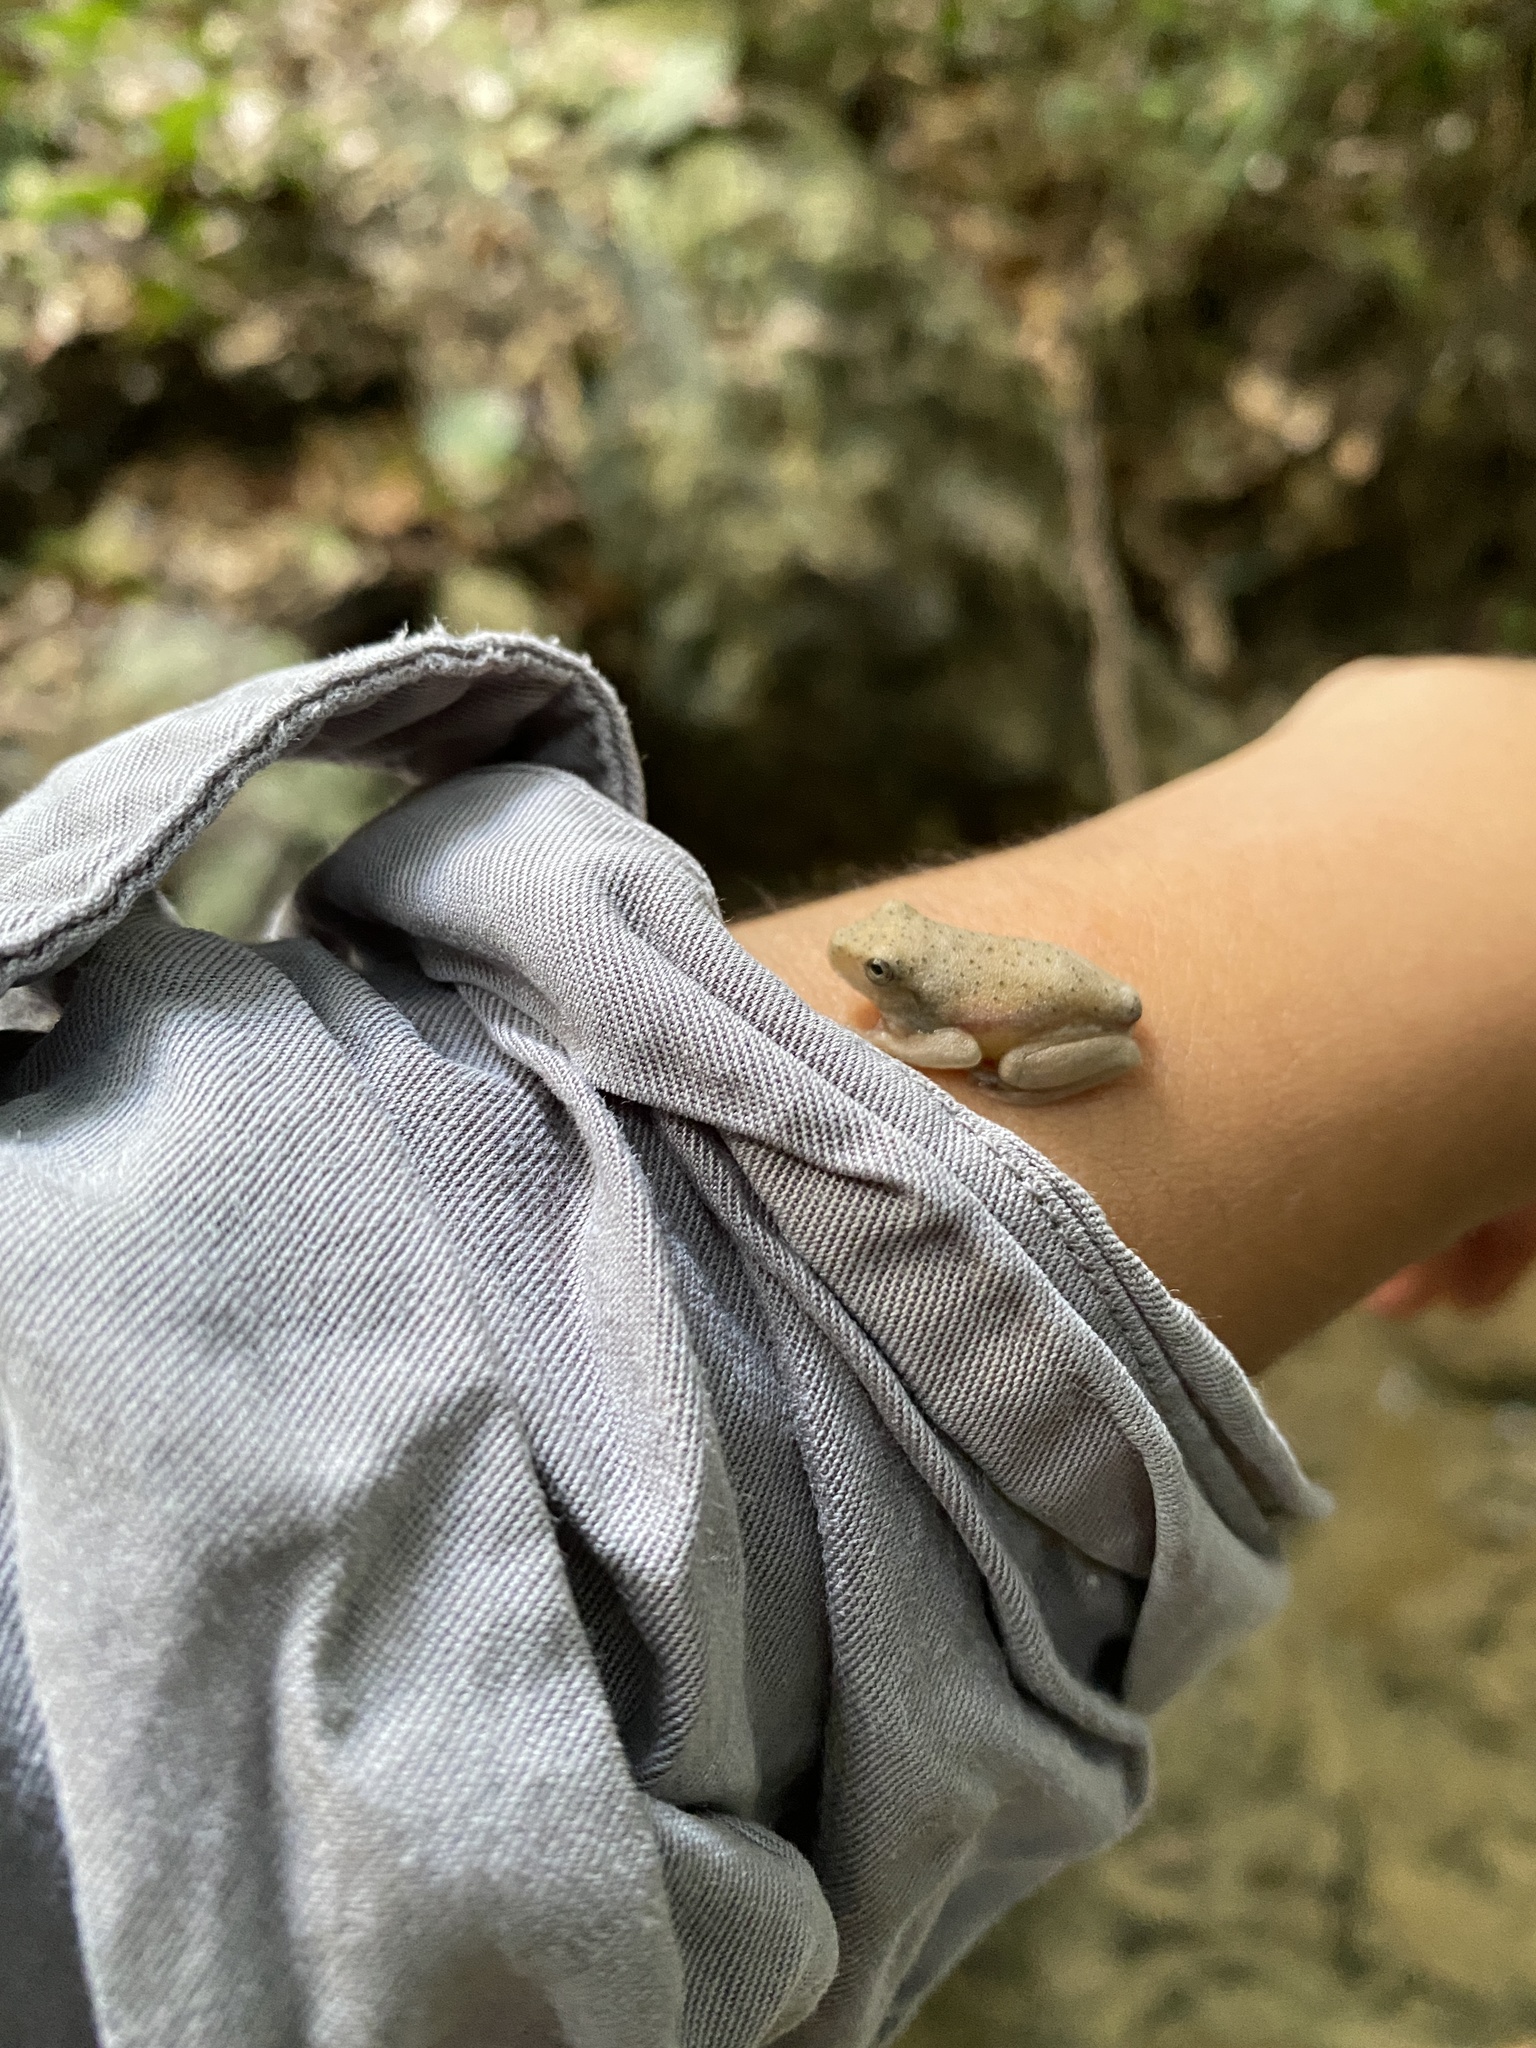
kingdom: Animalia
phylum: Chordata
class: Amphibia
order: Anura
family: Hylidae
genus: Boana
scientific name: Boana boans
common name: Giant gladiator treefrog
